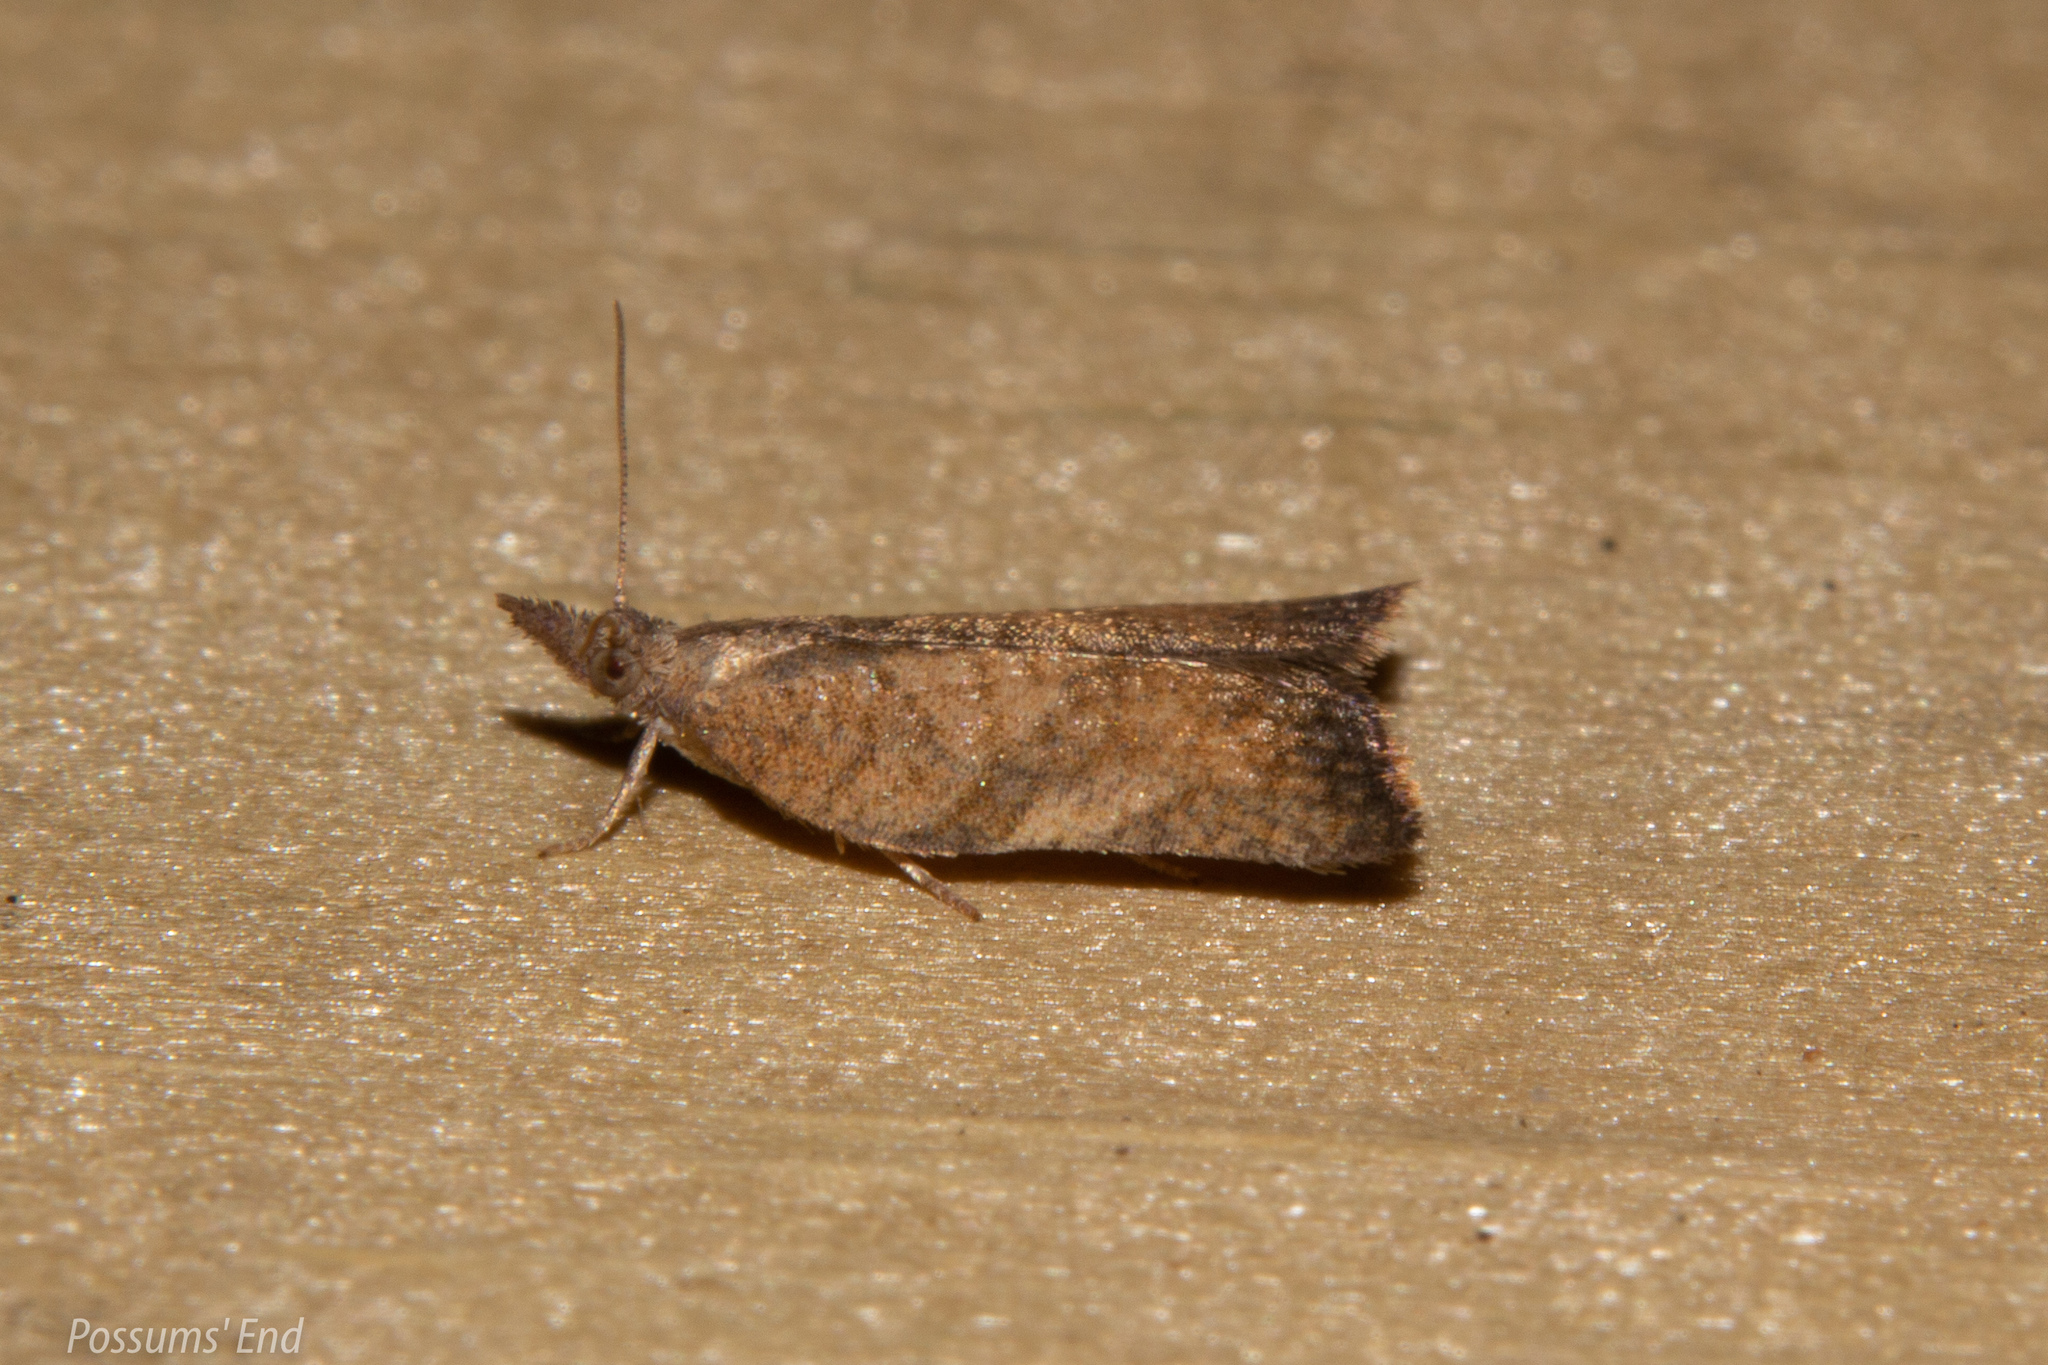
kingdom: Animalia
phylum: Arthropoda
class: Insecta
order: Lepidoptera
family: Tortricidae
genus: Catamacta
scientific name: Catamacta gavisana
